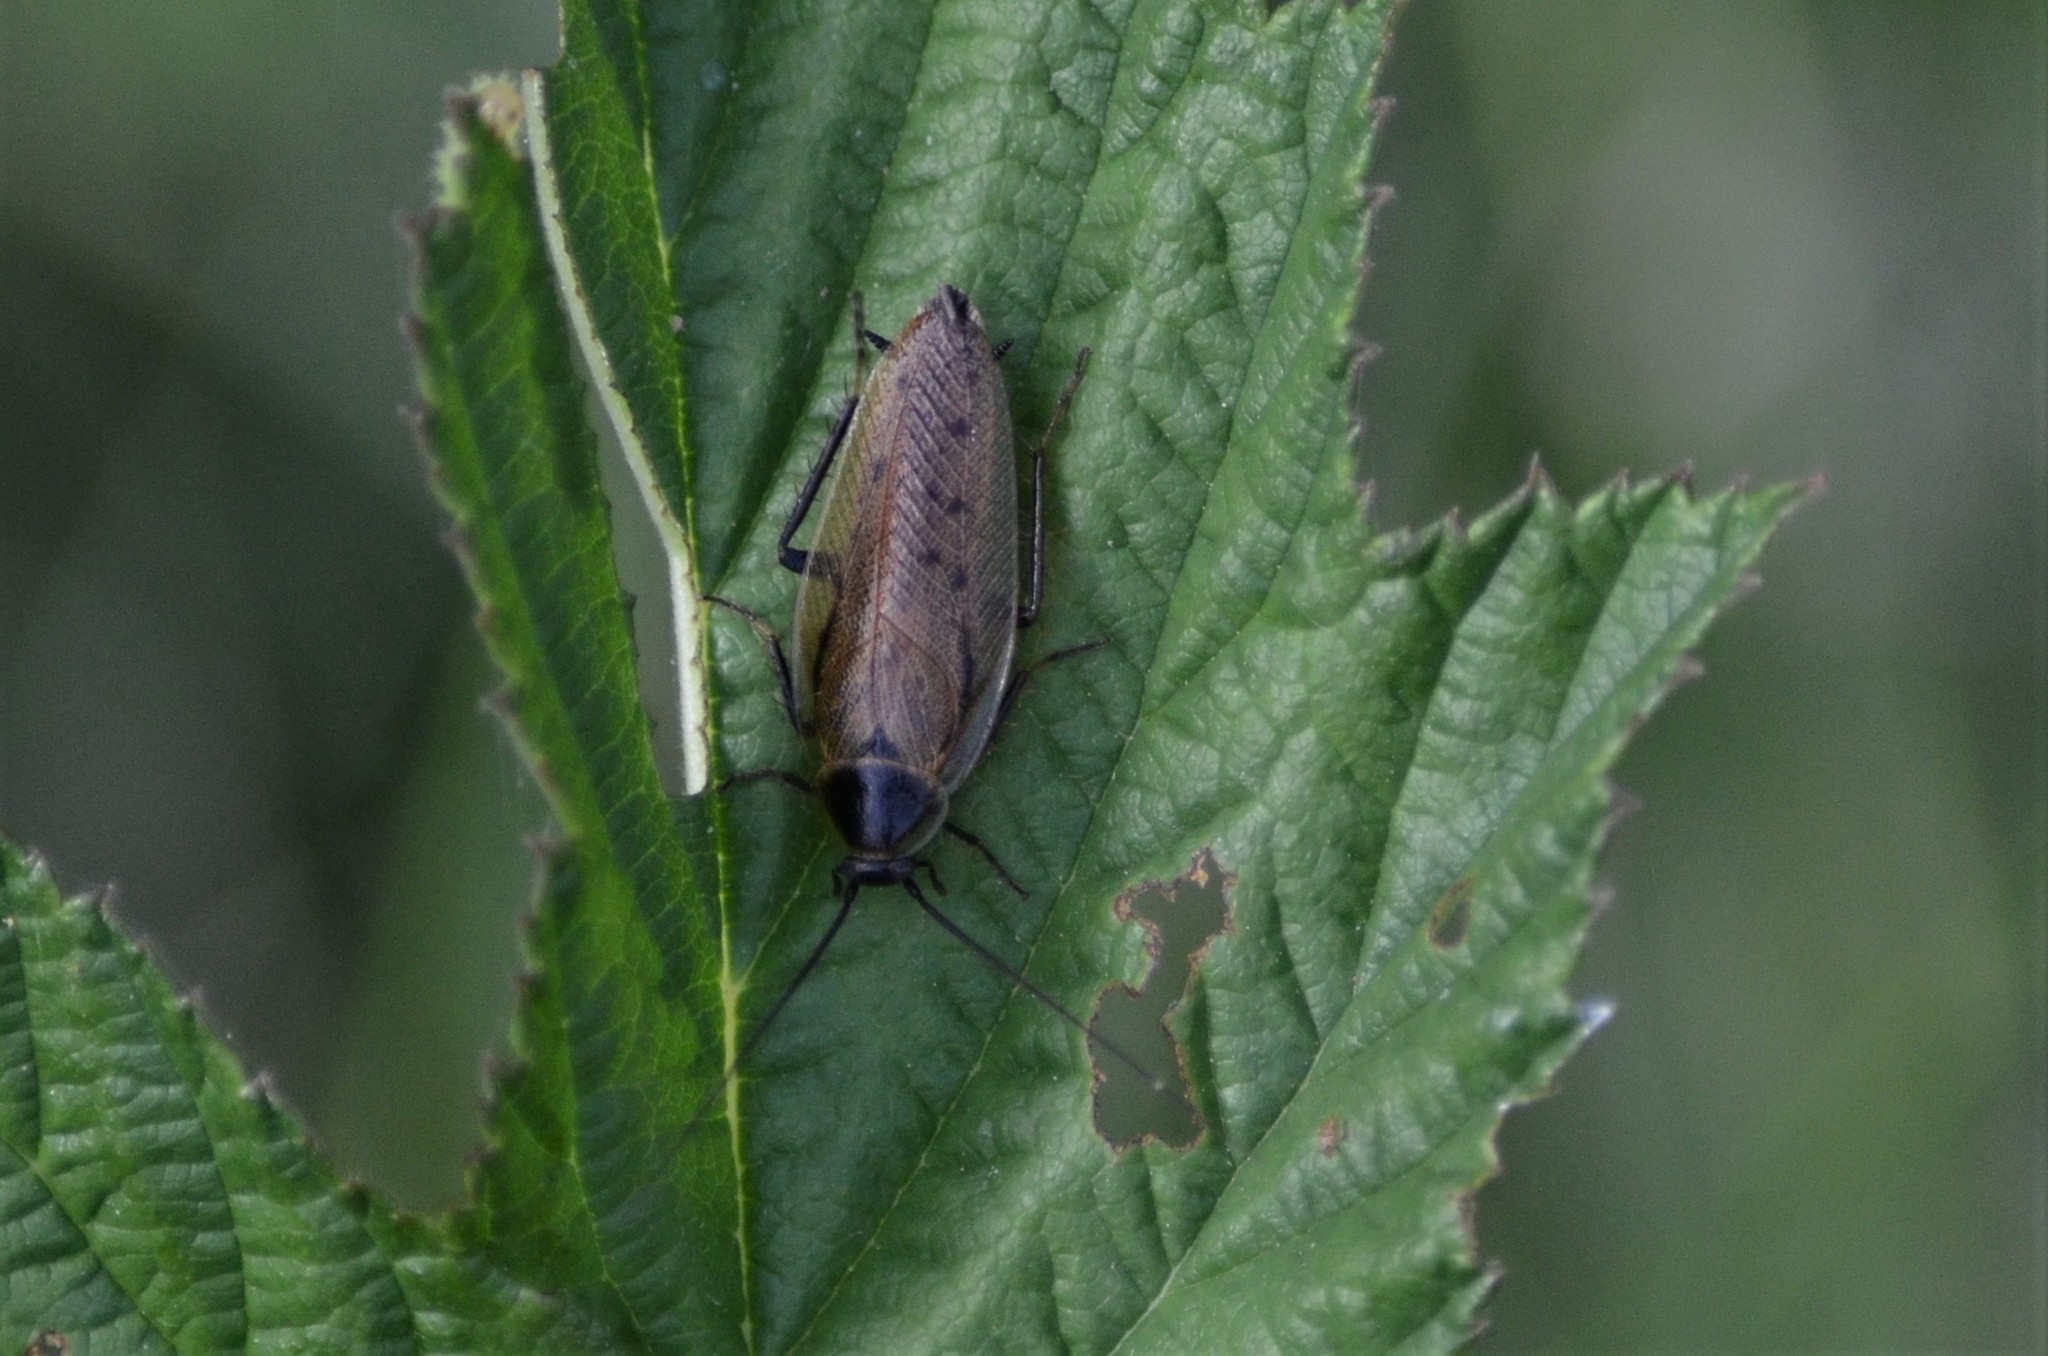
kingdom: Animalia
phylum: Arthropoda
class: Insecta
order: Blattodea
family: Ectobiidae
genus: Ectobius
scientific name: Ectobius lapponicus
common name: Dusky cockroach
